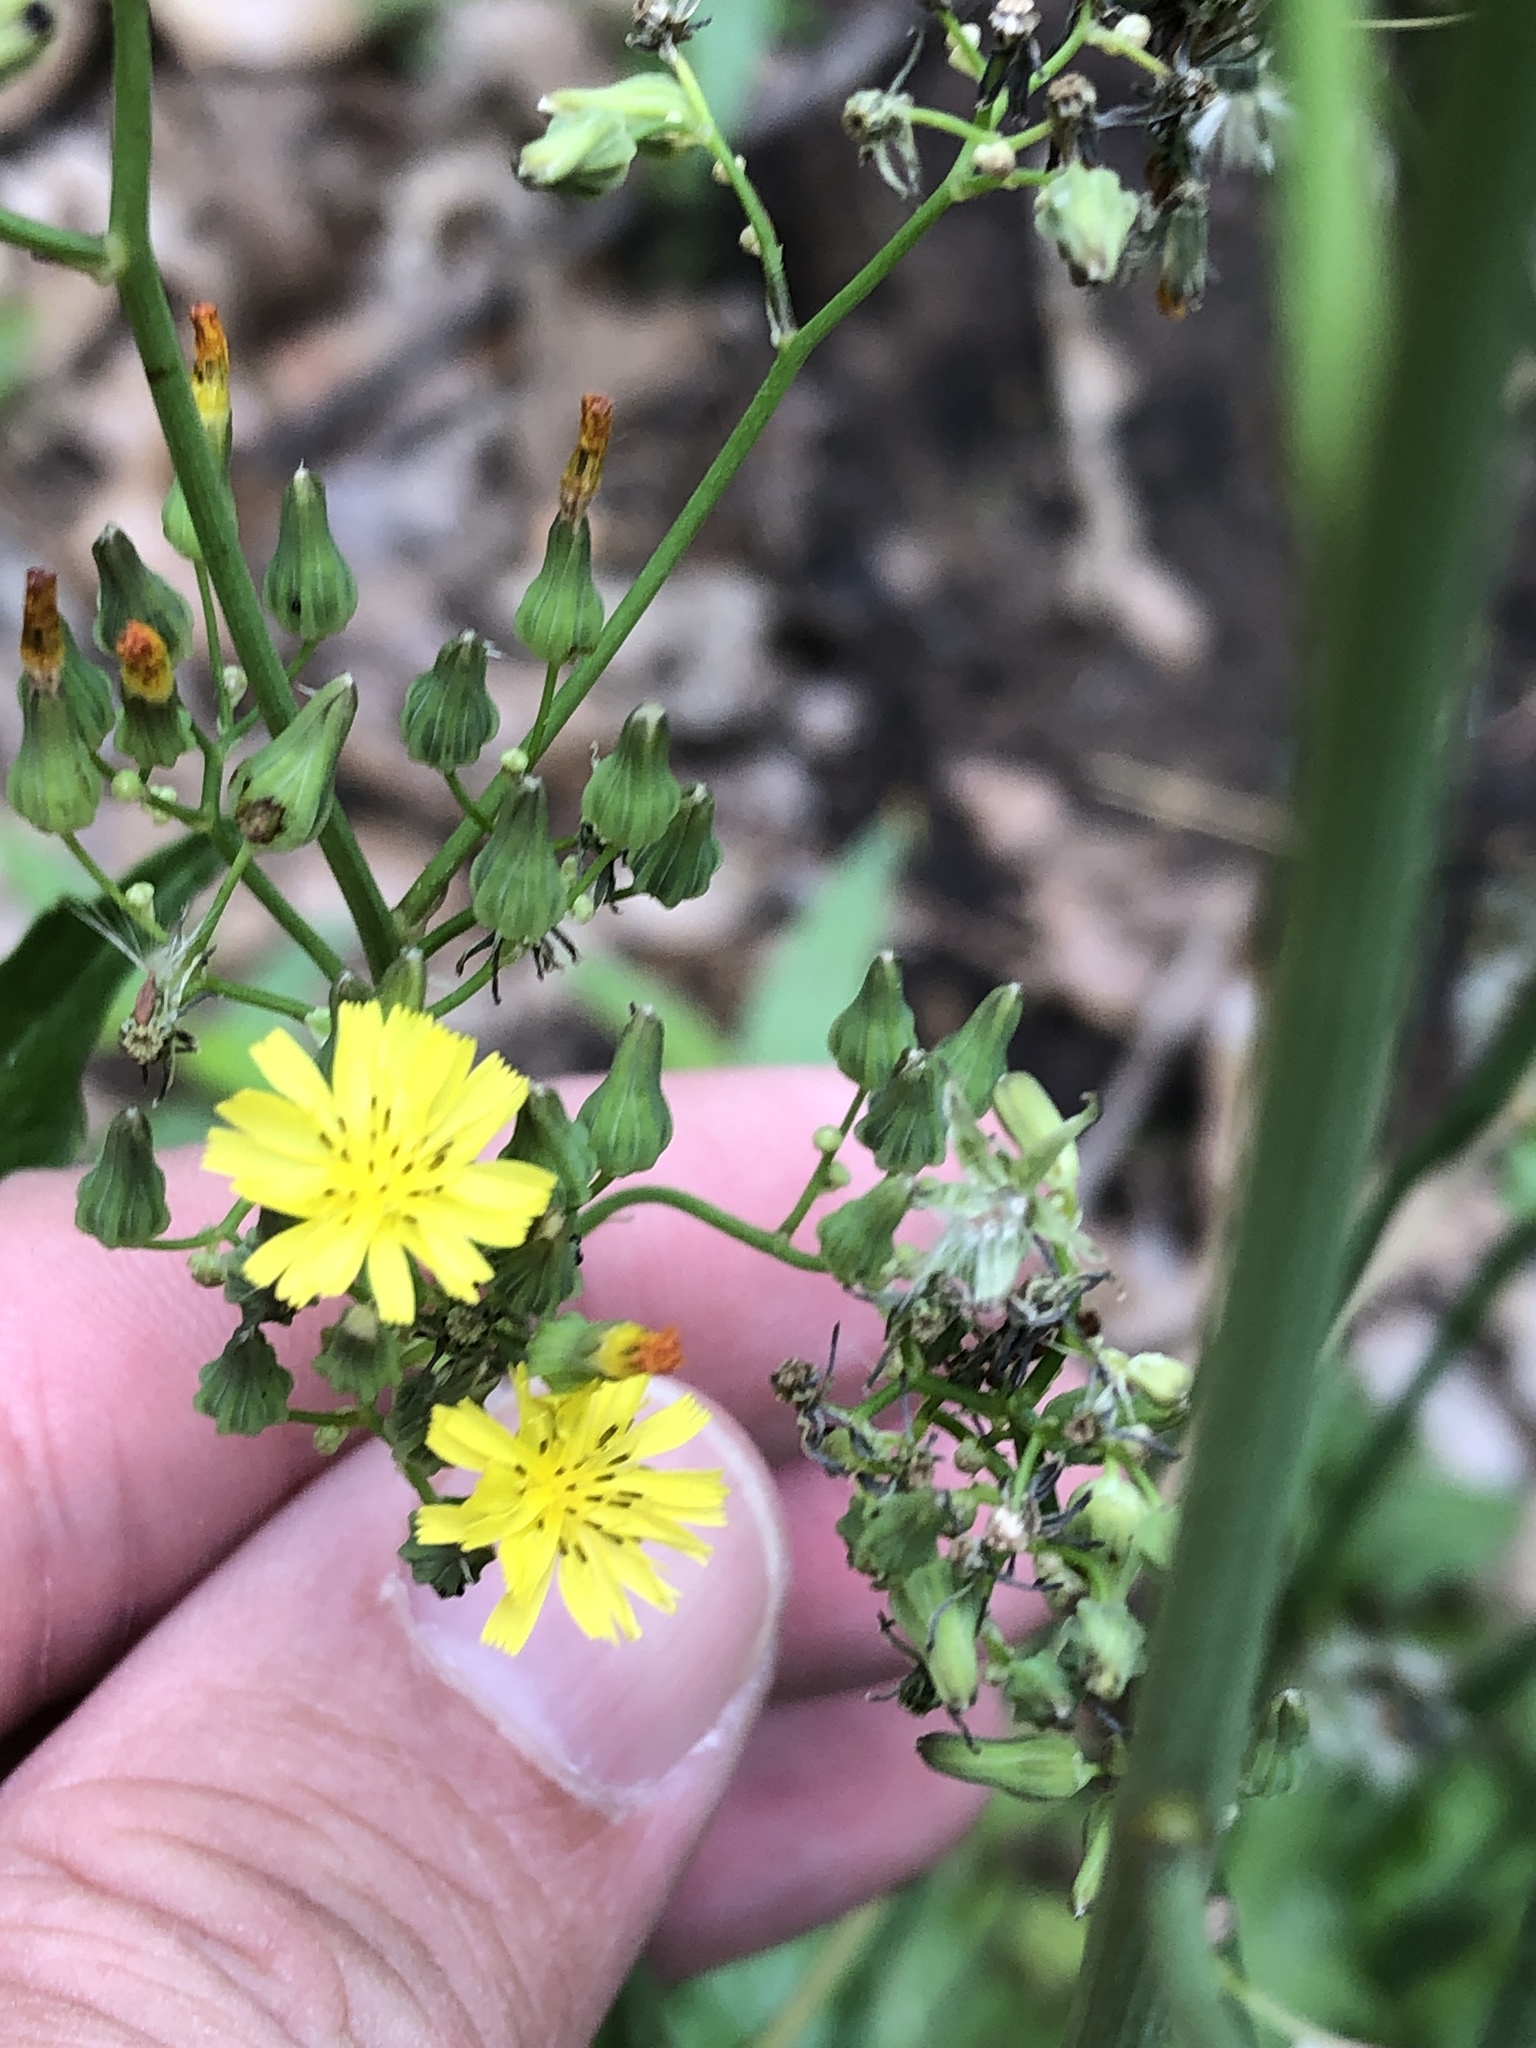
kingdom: Plantae
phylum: Tracheophyta
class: Magnoliopsida
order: Asterales
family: Asteraceae
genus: Youngia
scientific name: Youngia japonica
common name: Oriental false hawksbeard
